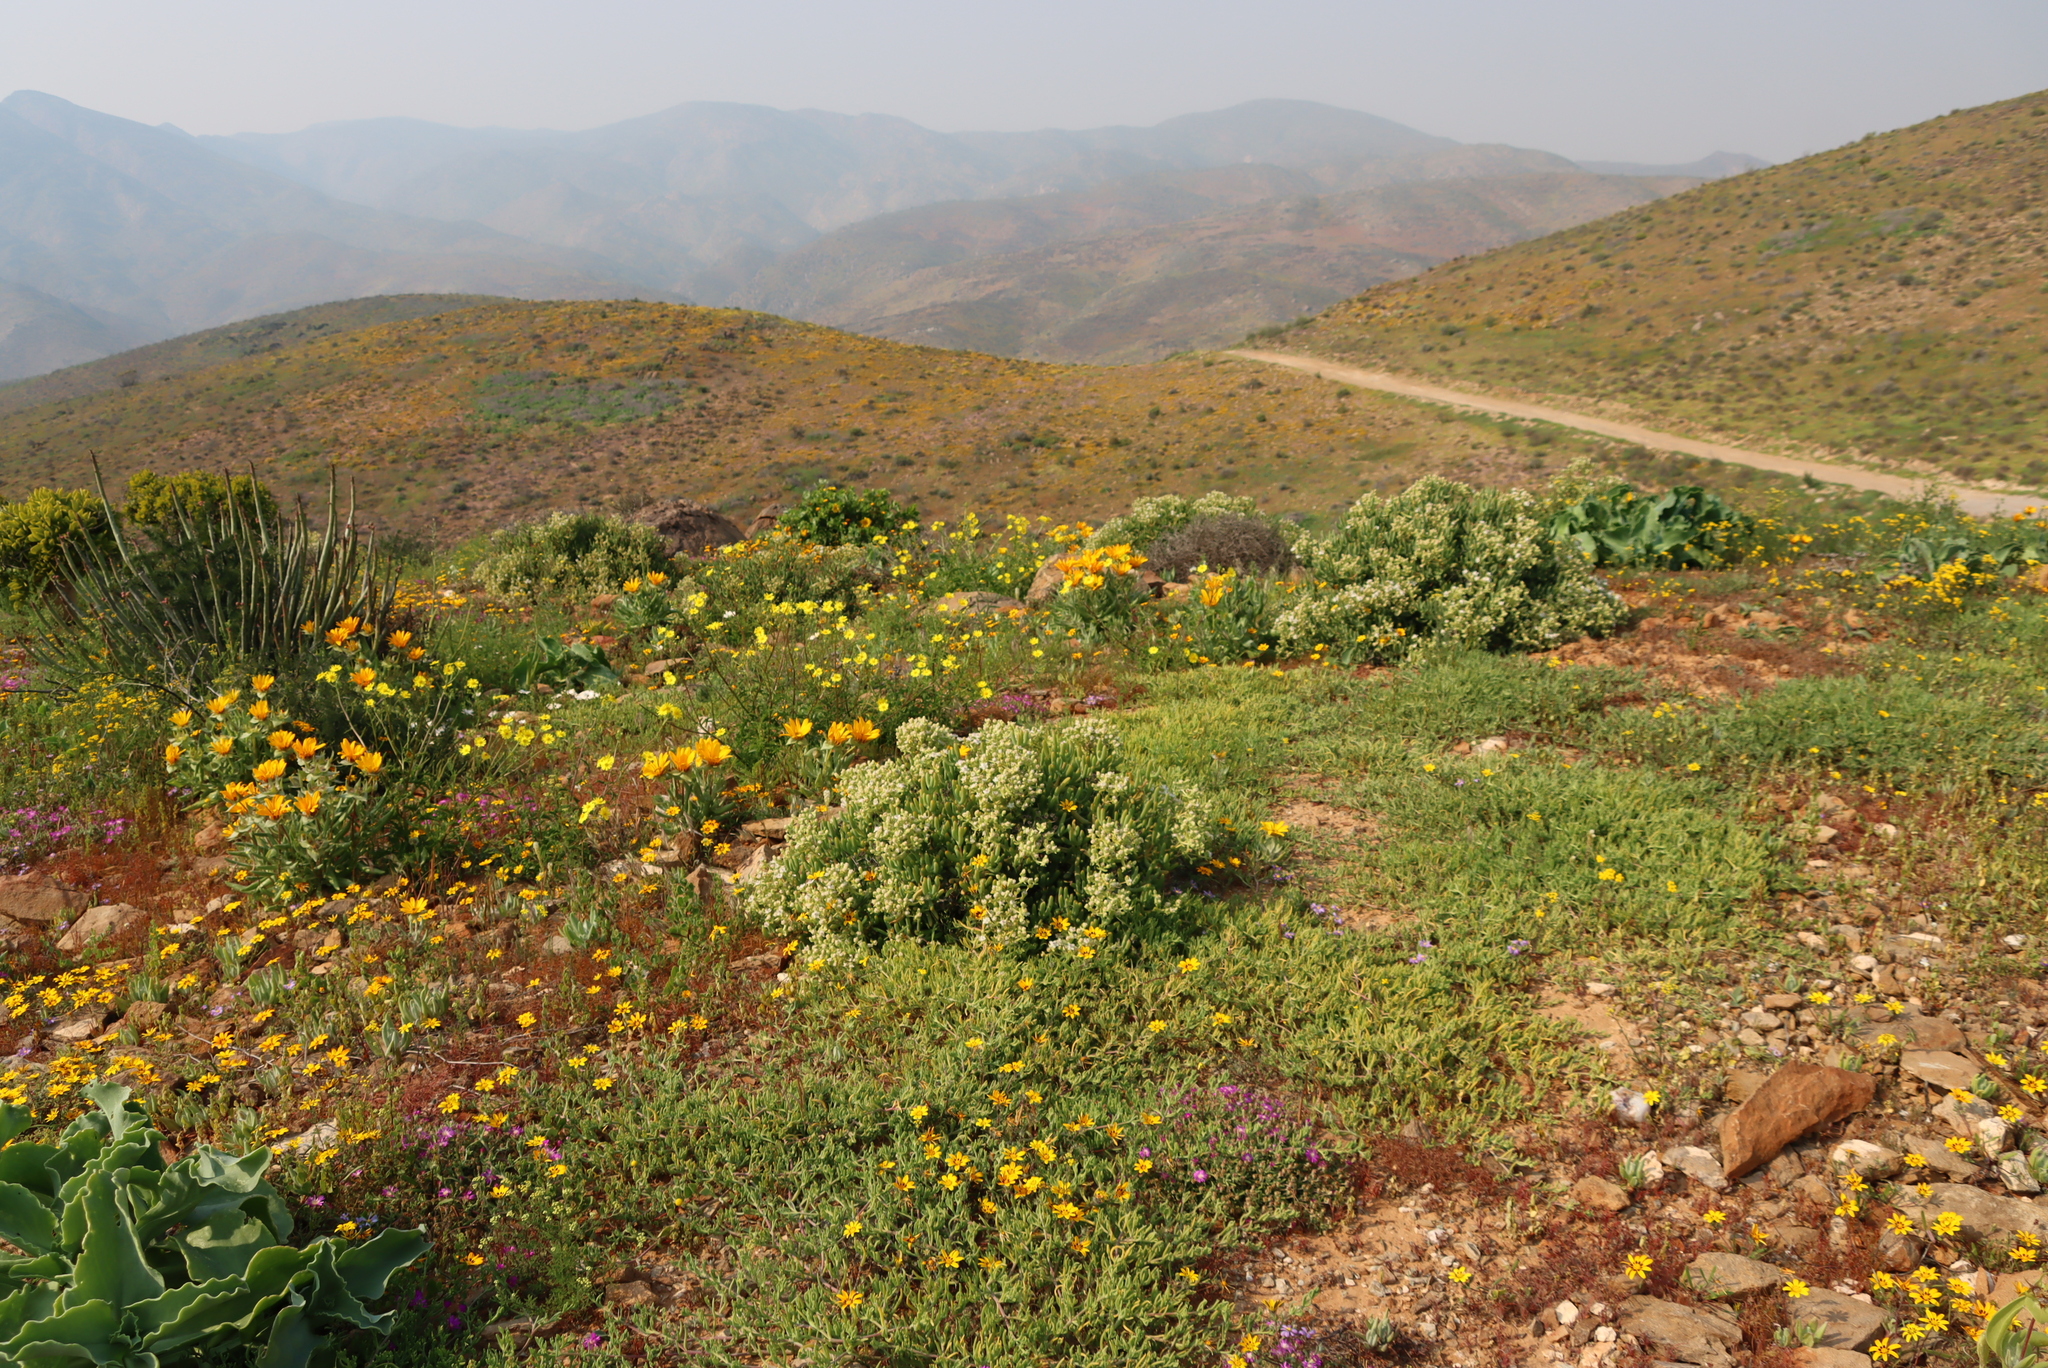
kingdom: Plantae
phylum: Tracheophyta
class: Magnoliopsida
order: Caryophyllales
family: Aizoaceae
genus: Stoeberia
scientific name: Stoeberia frutescens
